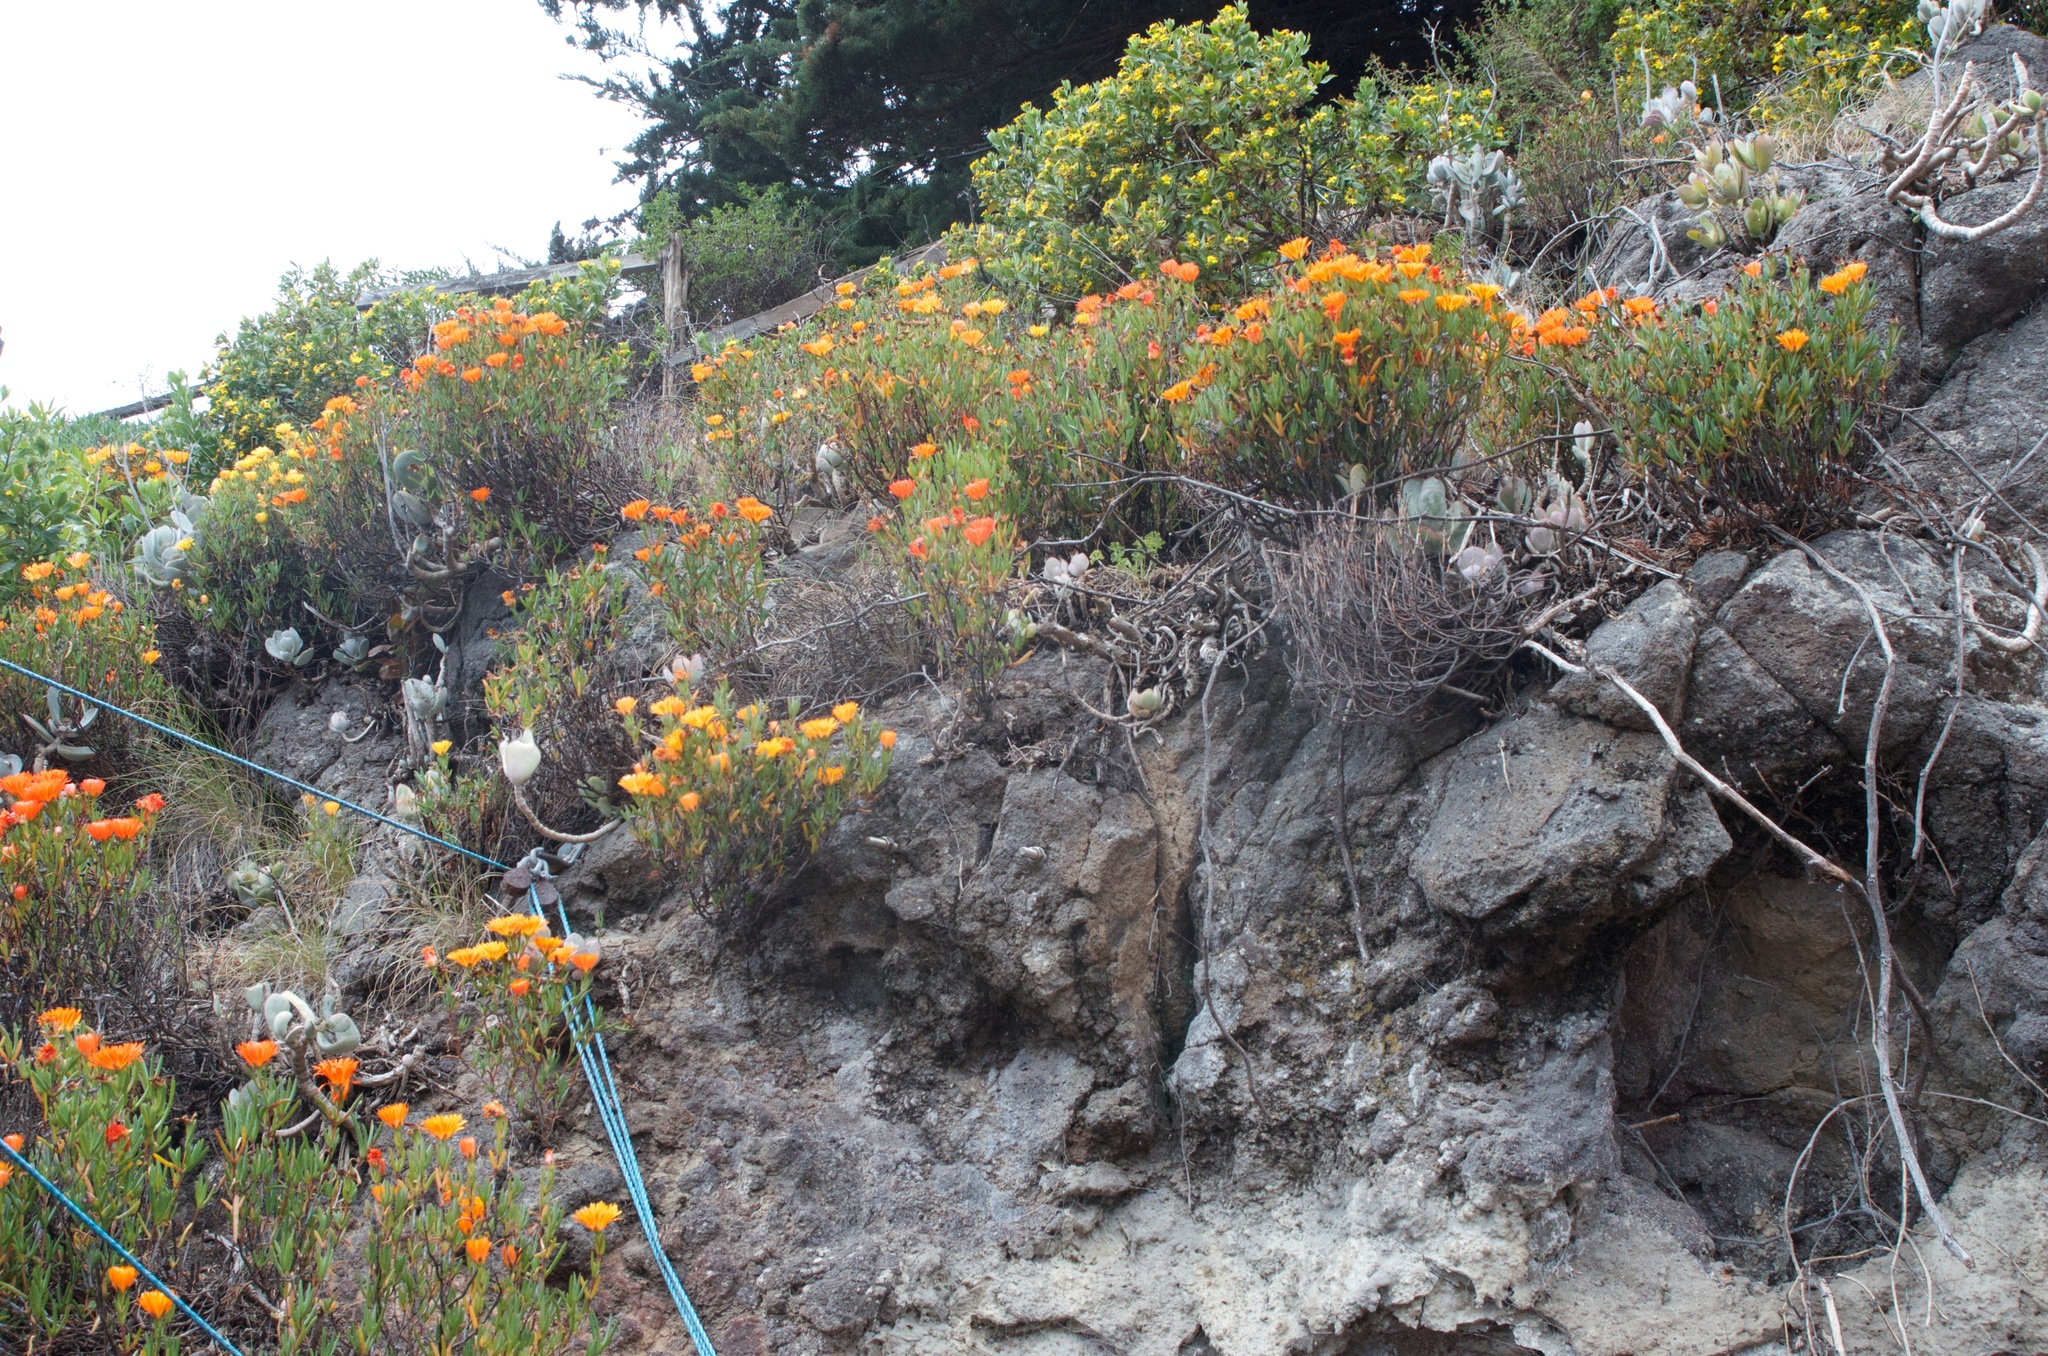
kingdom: Plantae
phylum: Tracheophyta
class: Magnoliopsida
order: Caryophyllales
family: Aizoaceae
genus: Lampranthus
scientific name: Lampranthus aureus
